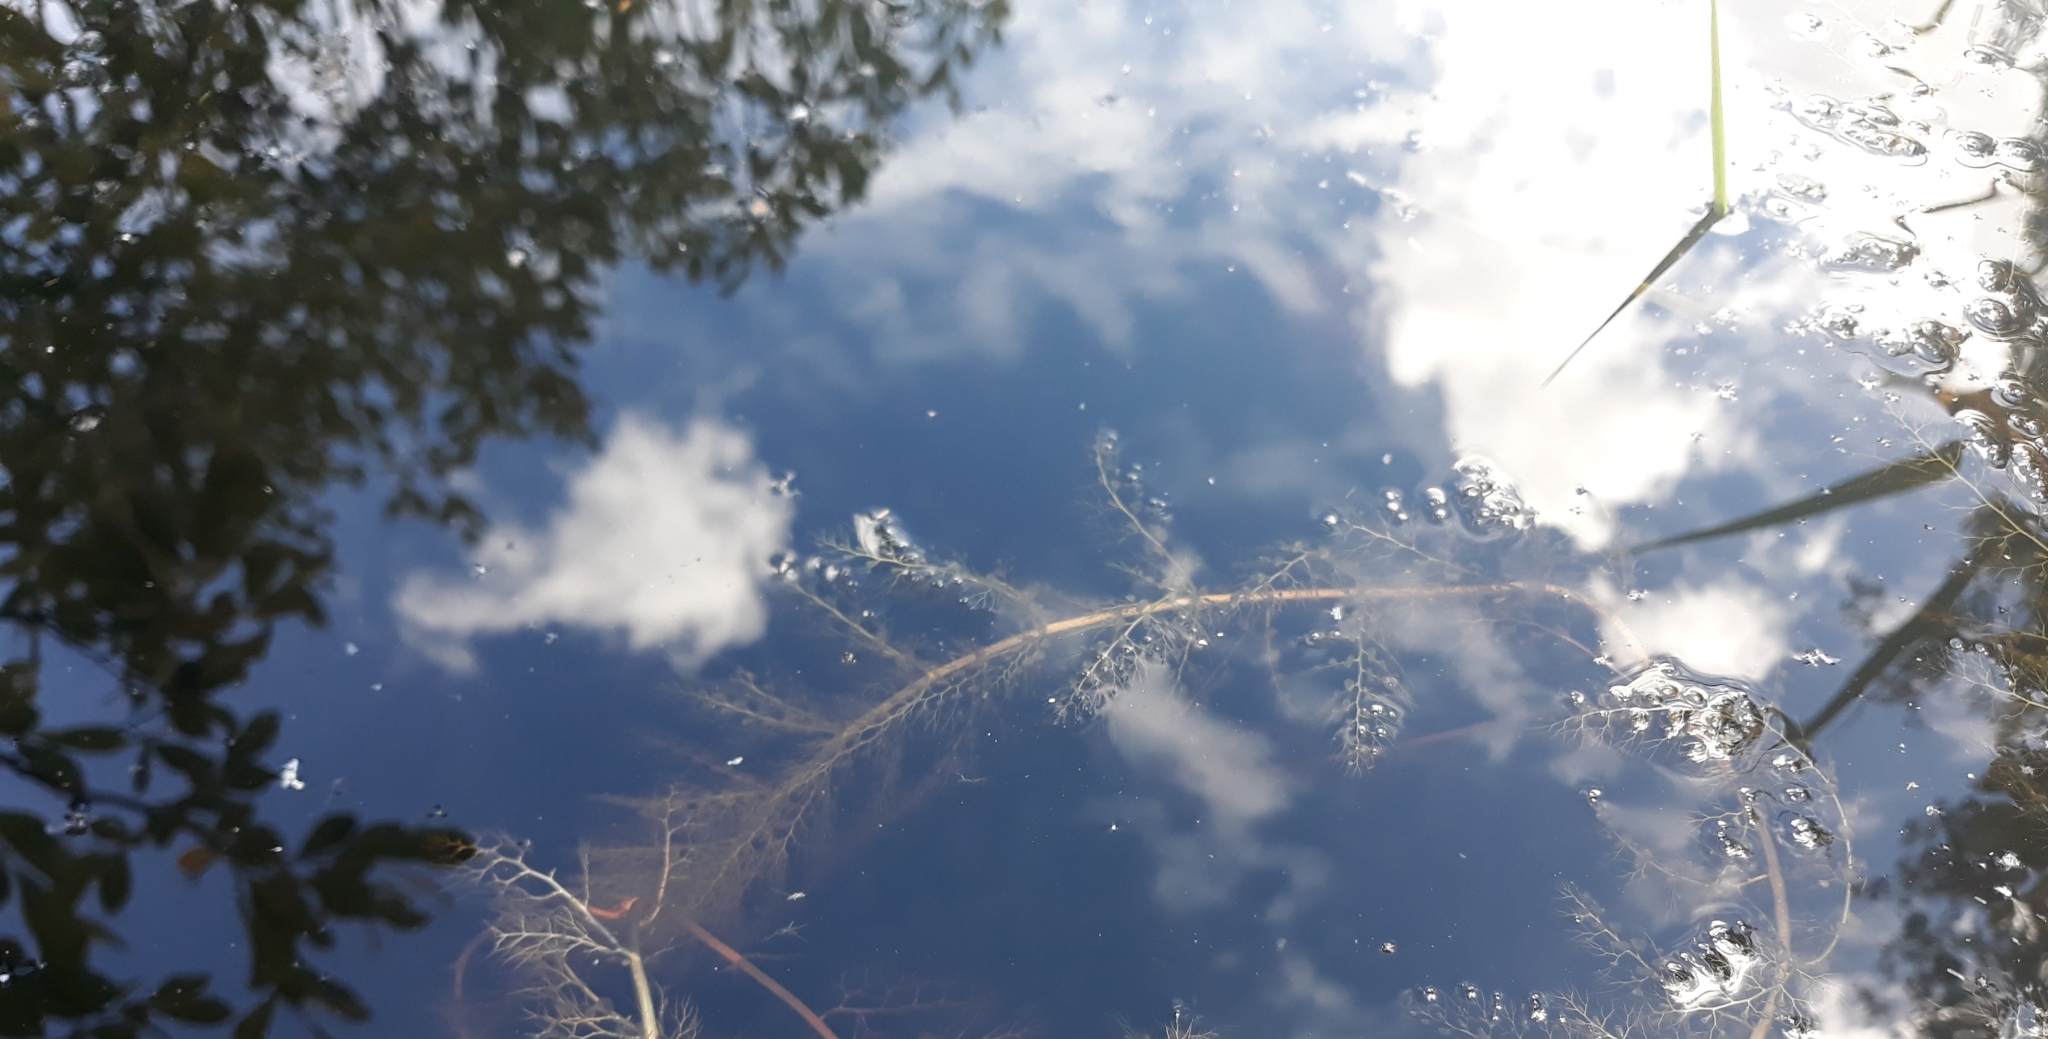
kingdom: Plantae
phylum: Tracheophyta
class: Magnoliopsida
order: Lamiales
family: Lentibulariaceae
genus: Utricularia
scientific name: Utricularia australis
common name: Bladderwort
